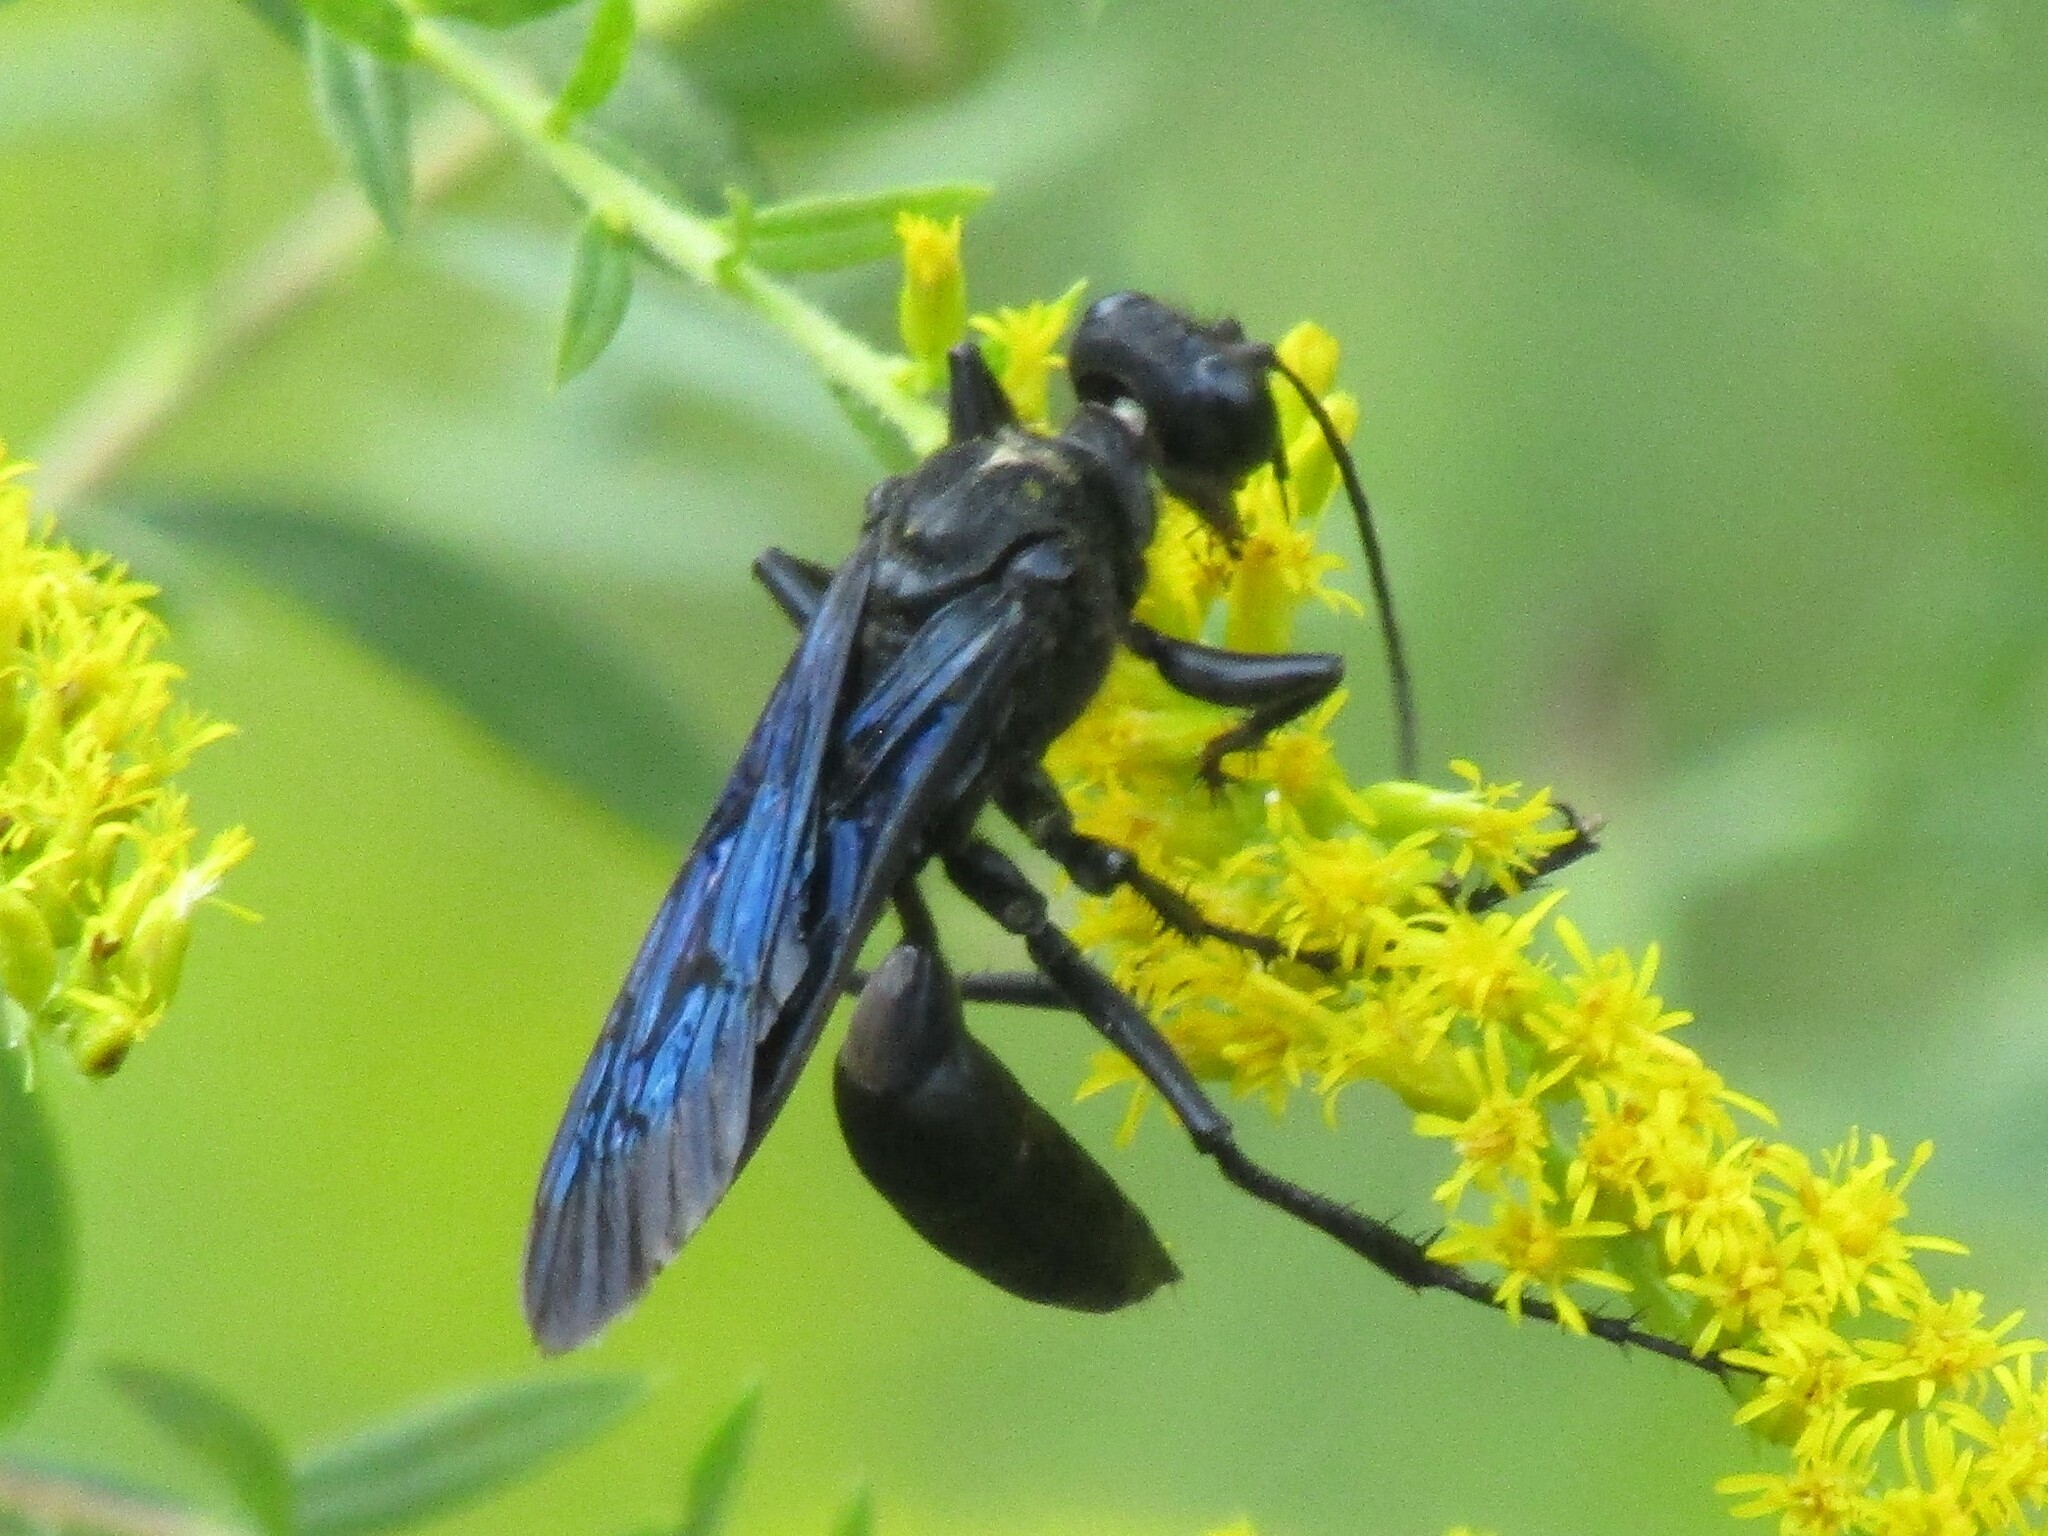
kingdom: Animalia
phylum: Arthropoda
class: Insecta
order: Hymenoptera
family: Sphecidae
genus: Sphex
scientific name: Sphex pensylvanicus
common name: Great black digger wasp
